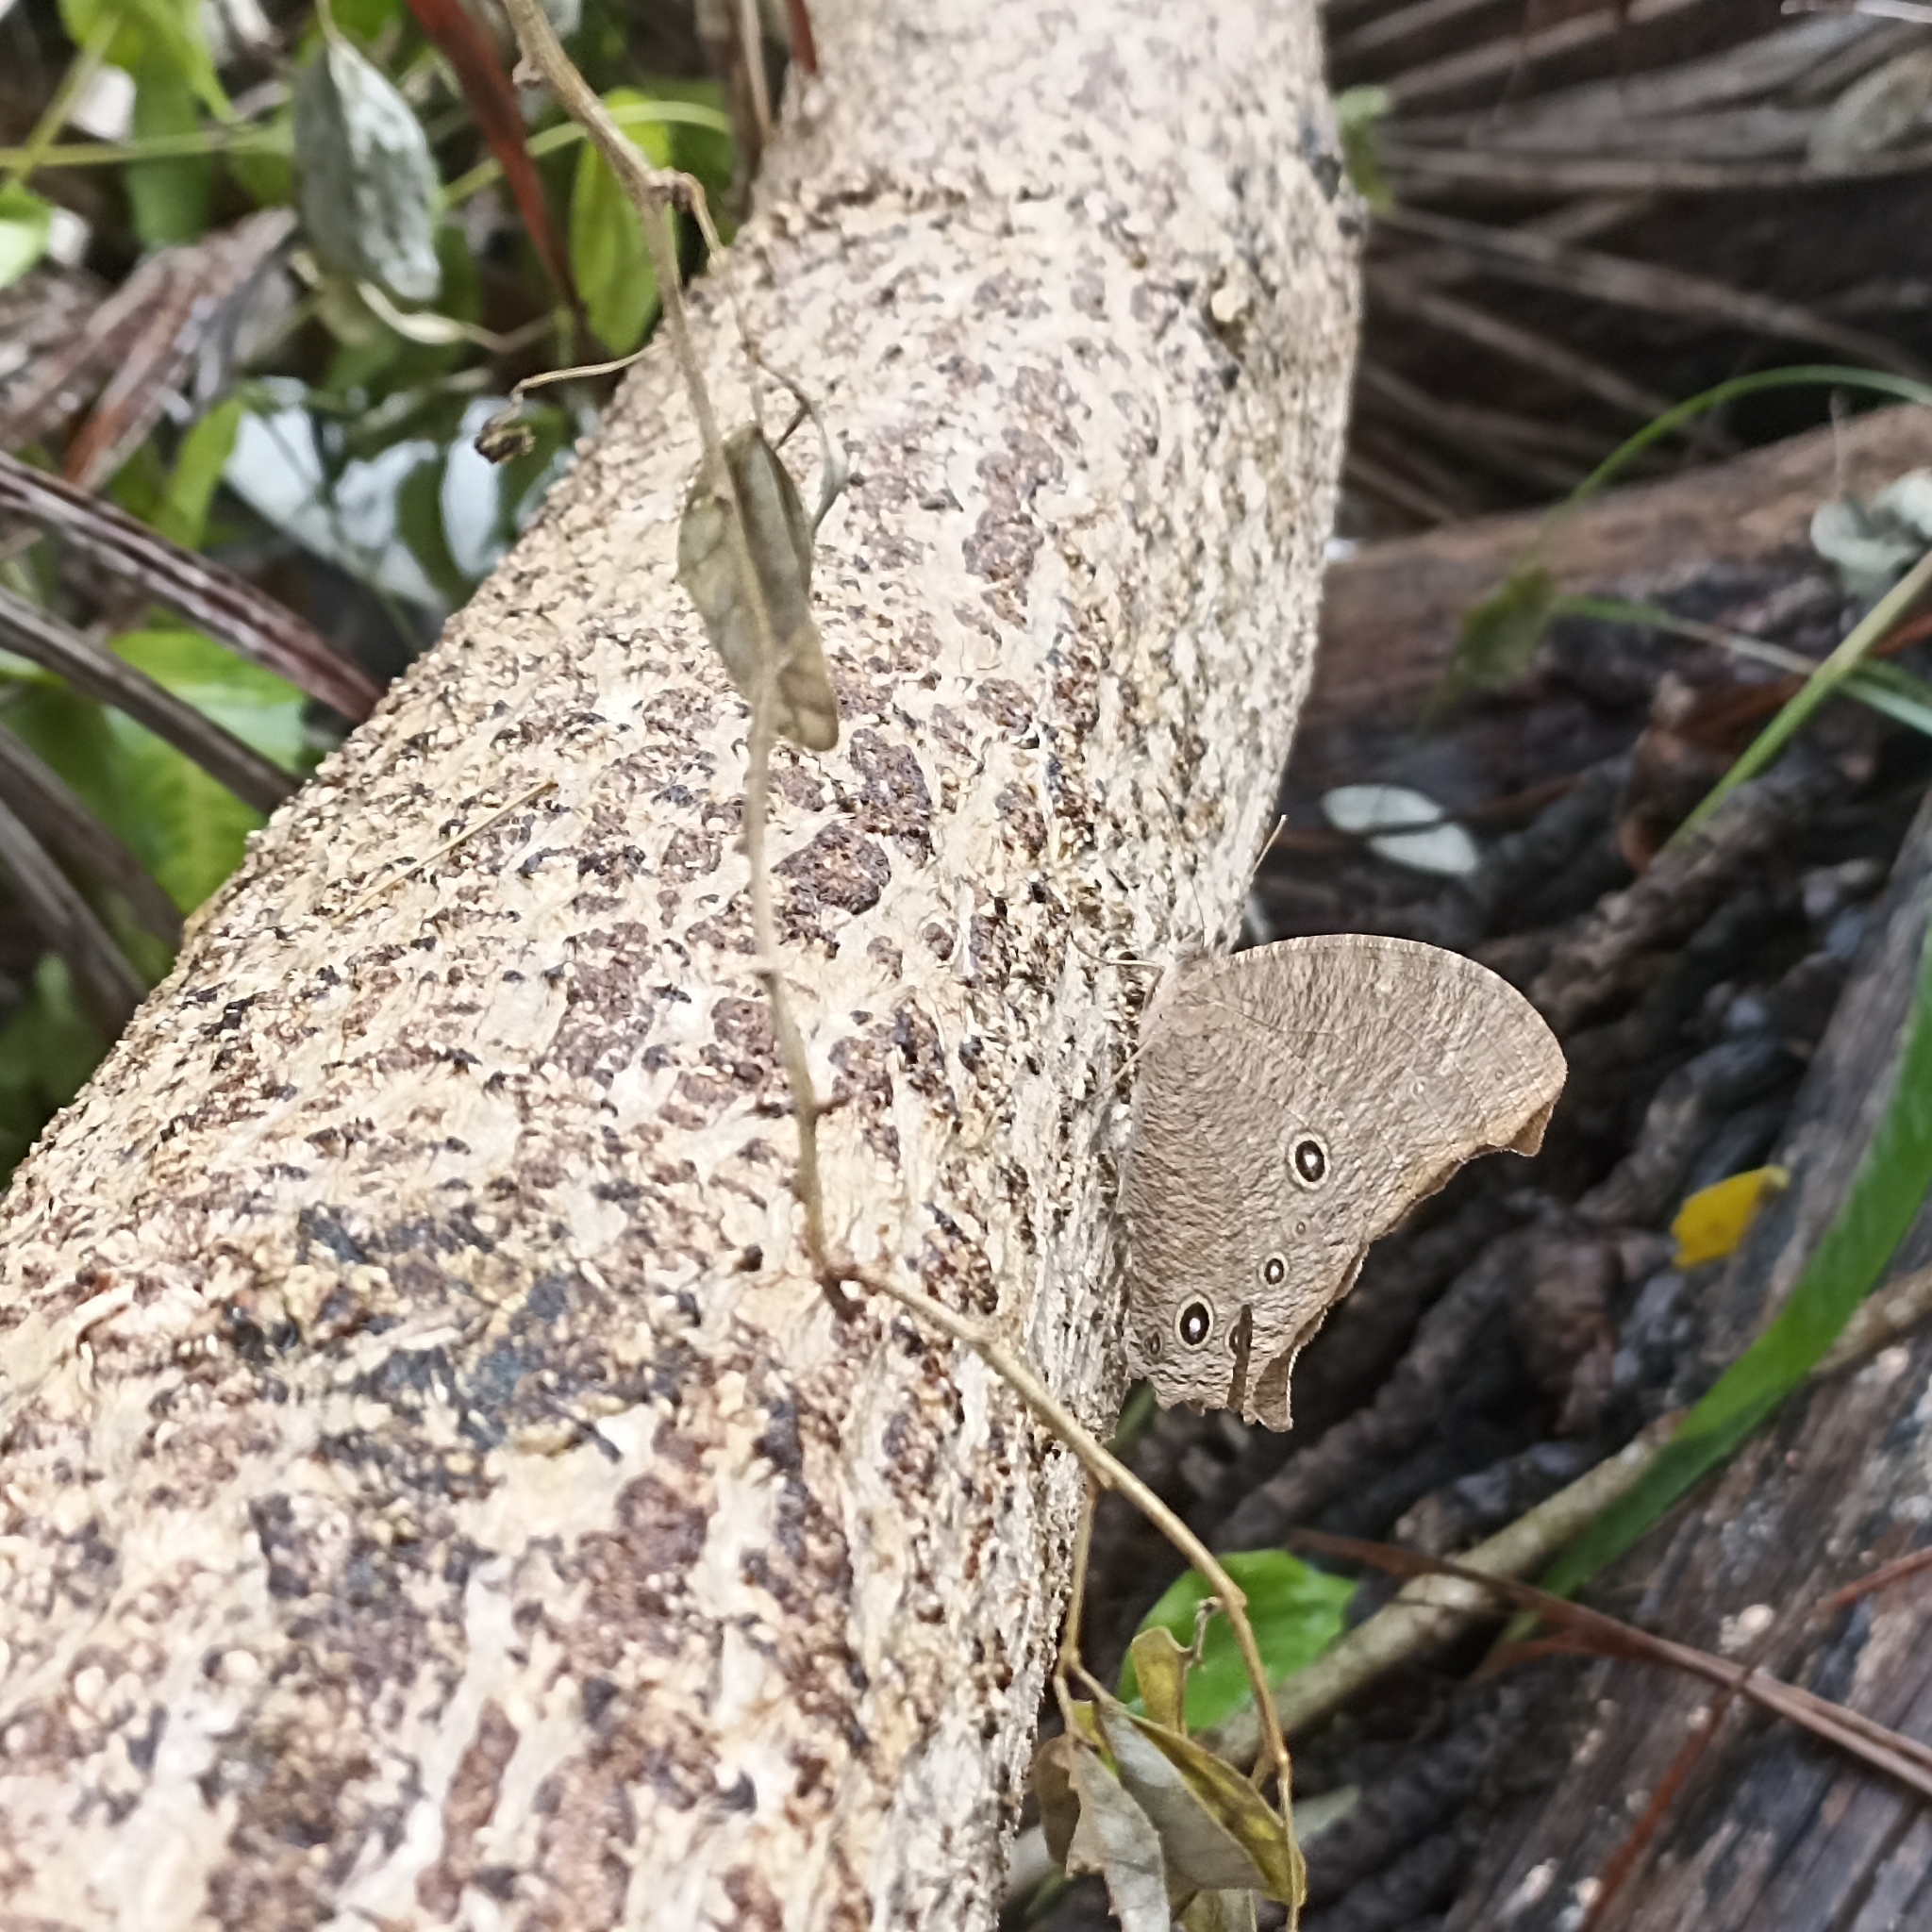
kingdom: Animalia
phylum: Arthropoda
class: Insecta
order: Lepidoptera
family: Nymphalidae
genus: Melanitis
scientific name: Melanitis leda
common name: Twilight brown
